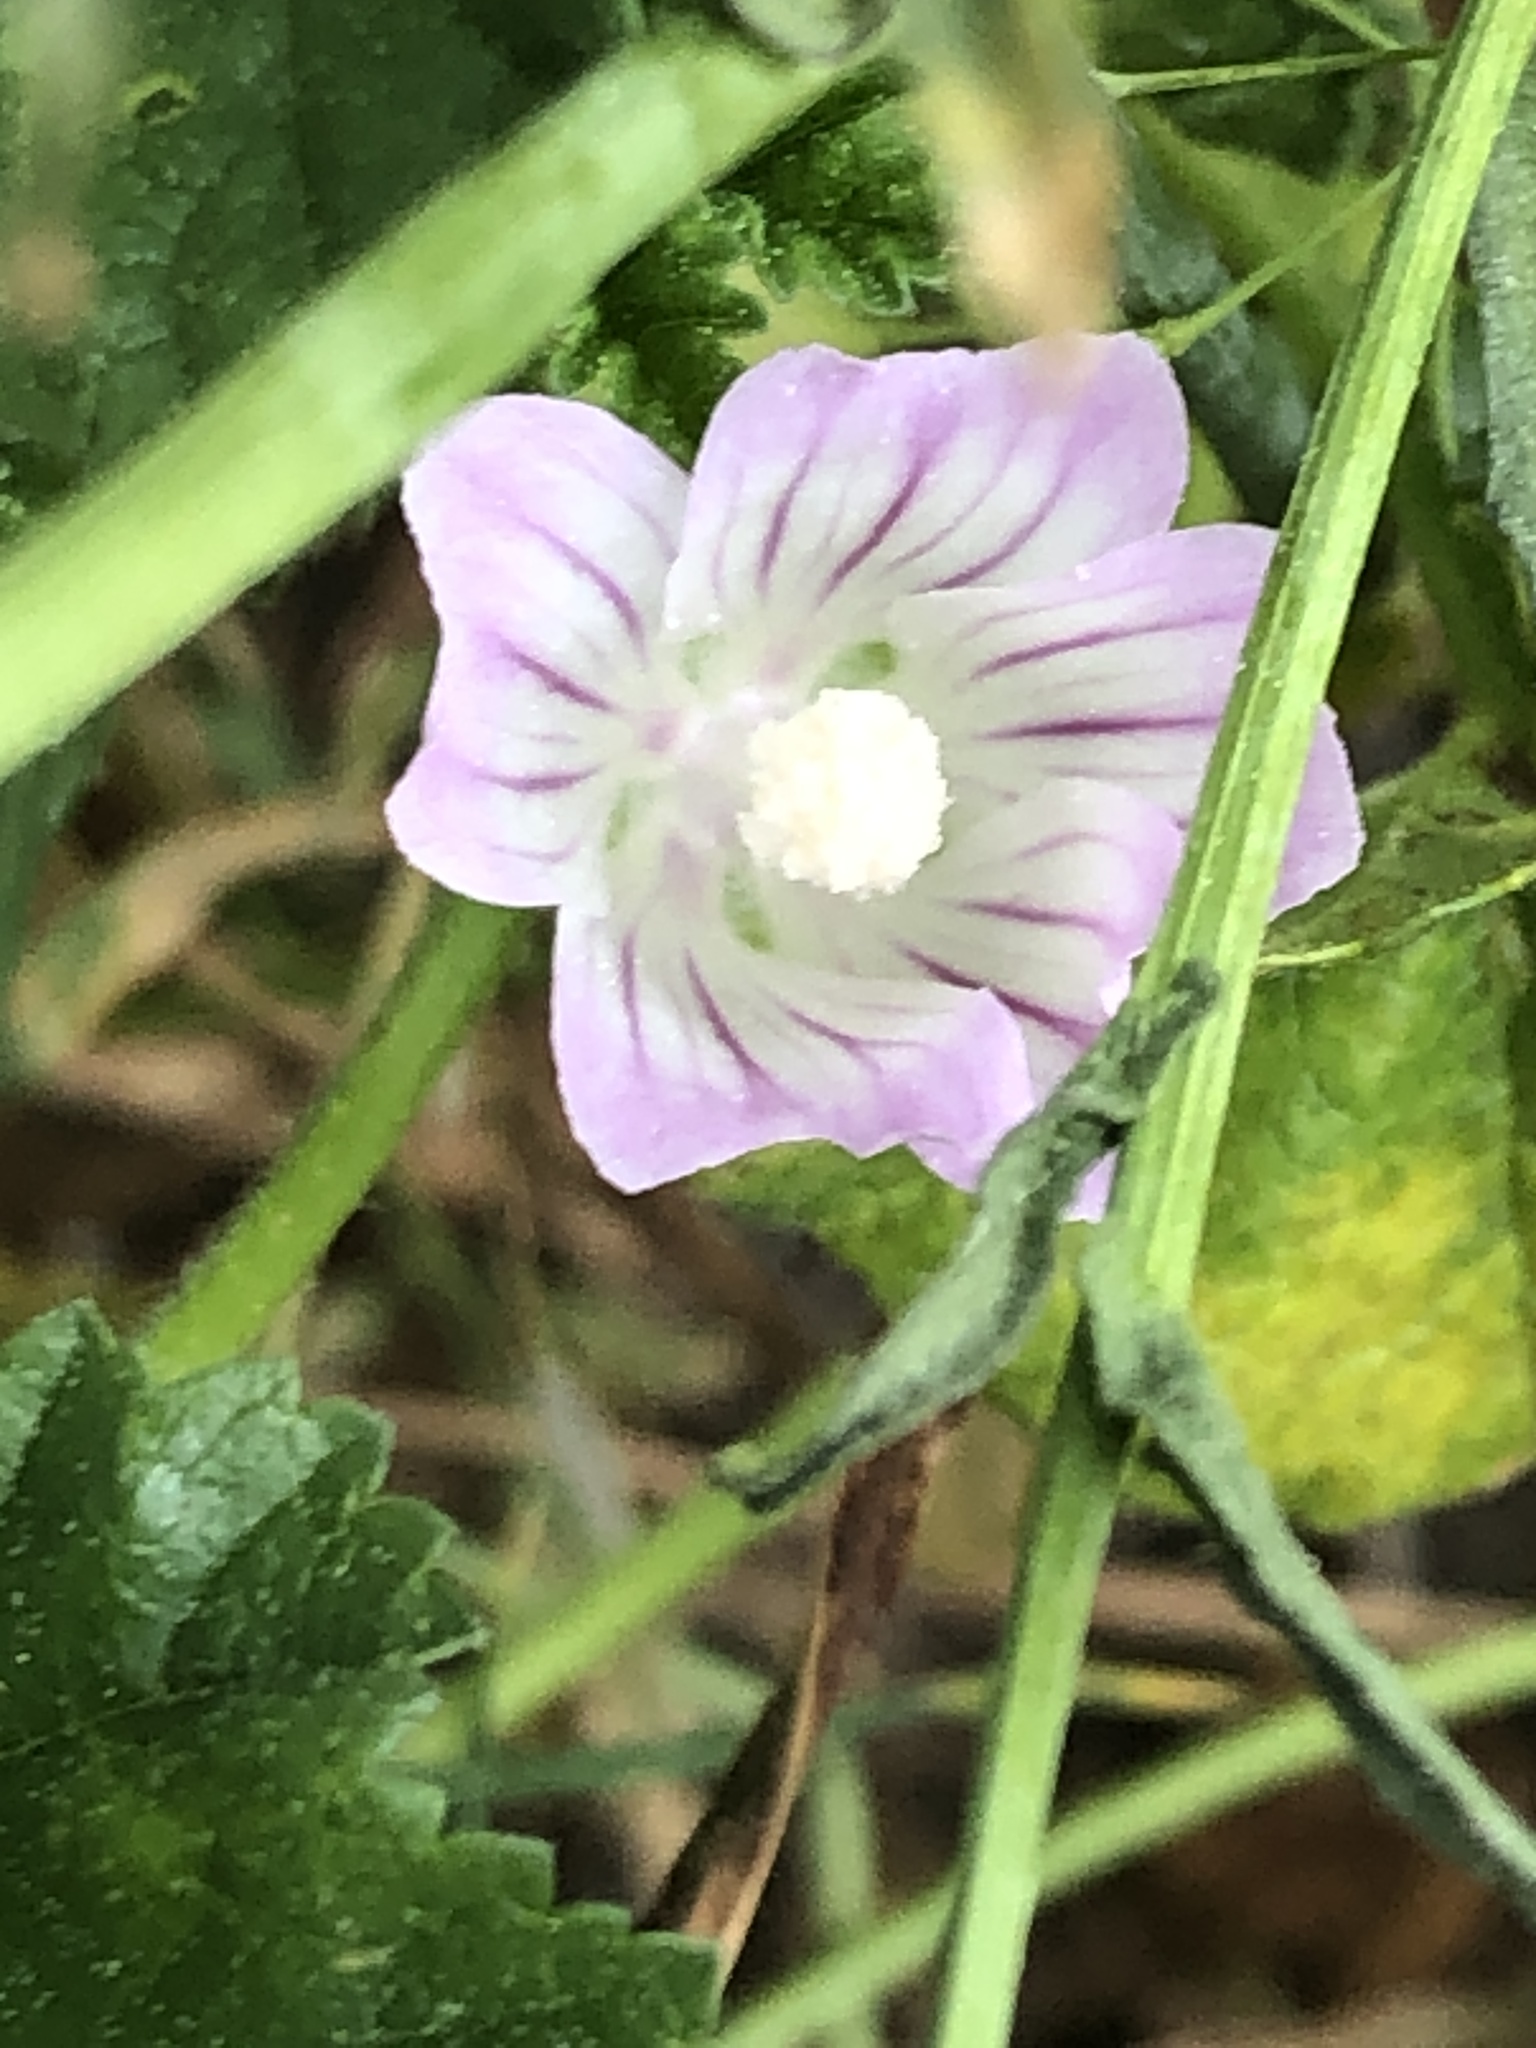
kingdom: Plantae
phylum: Tracheophyta
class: Magnoliopsida
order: Malvales
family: Malvaceae
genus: Malva
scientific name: Malva neglecta
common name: Common mallow
